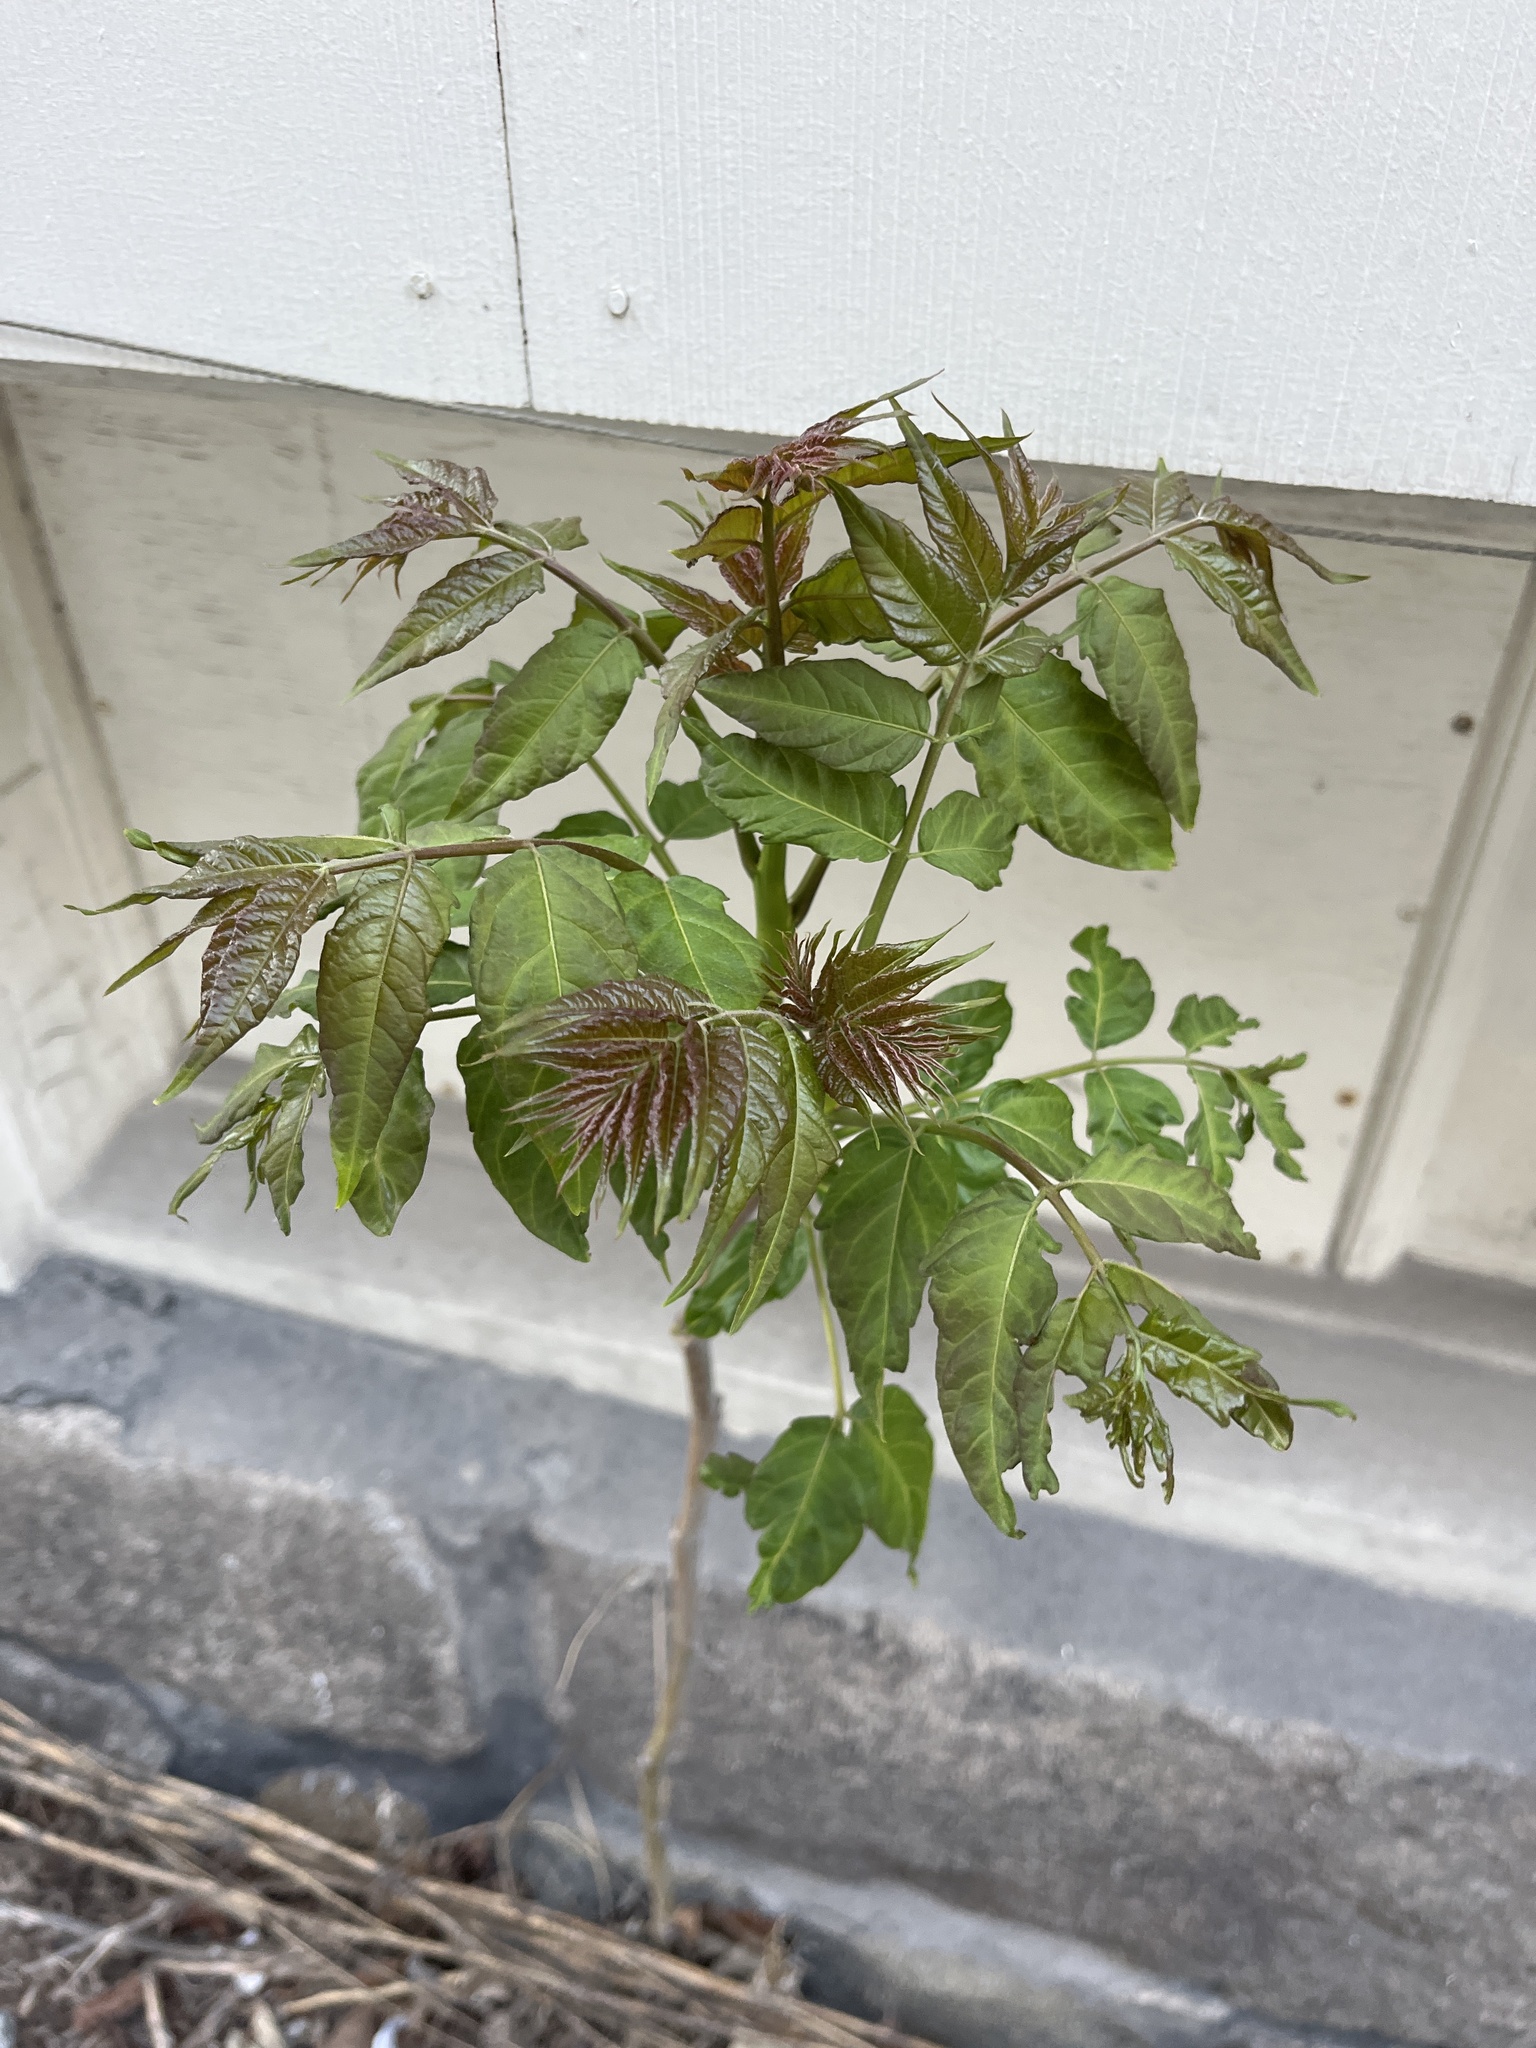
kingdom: Plantae
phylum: Tracheophyta
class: Magnoliopsida
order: Sapindales
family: Simaroubaceae
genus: Ailanthus
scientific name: Ailanthus altissima
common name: Tree-of-heaven
